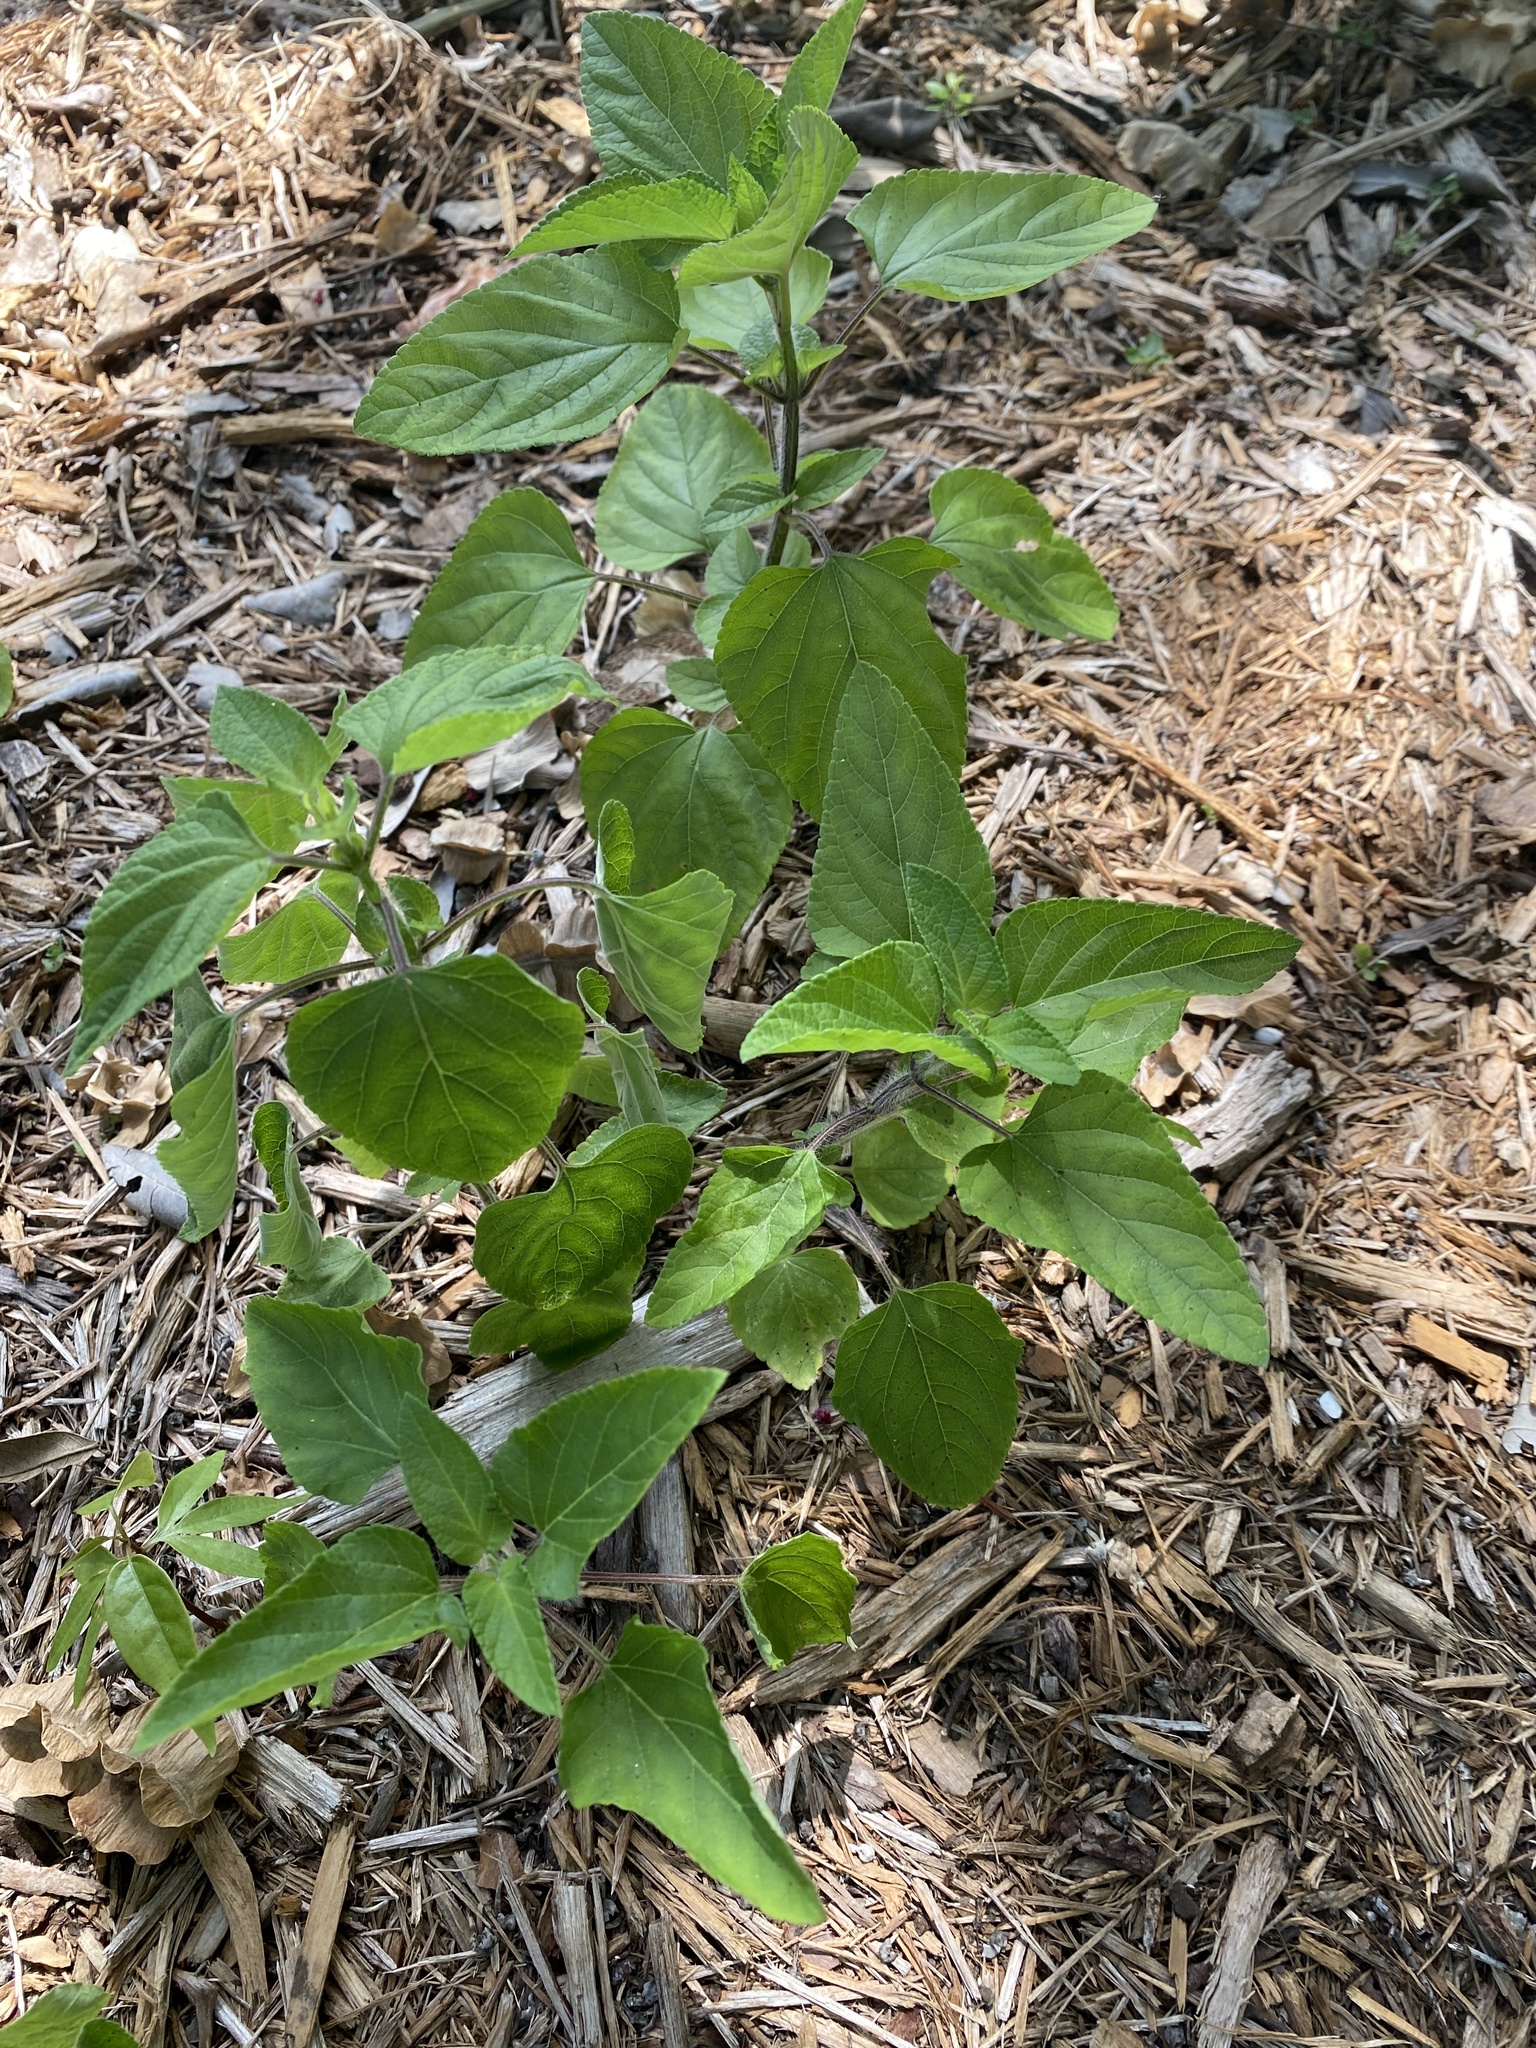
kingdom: Plantae
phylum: Tracheophyta
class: Magnoliopsida
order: Lamiales
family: Lamiaceae
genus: Salvia
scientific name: Salvia coccinea
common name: Blood sage
